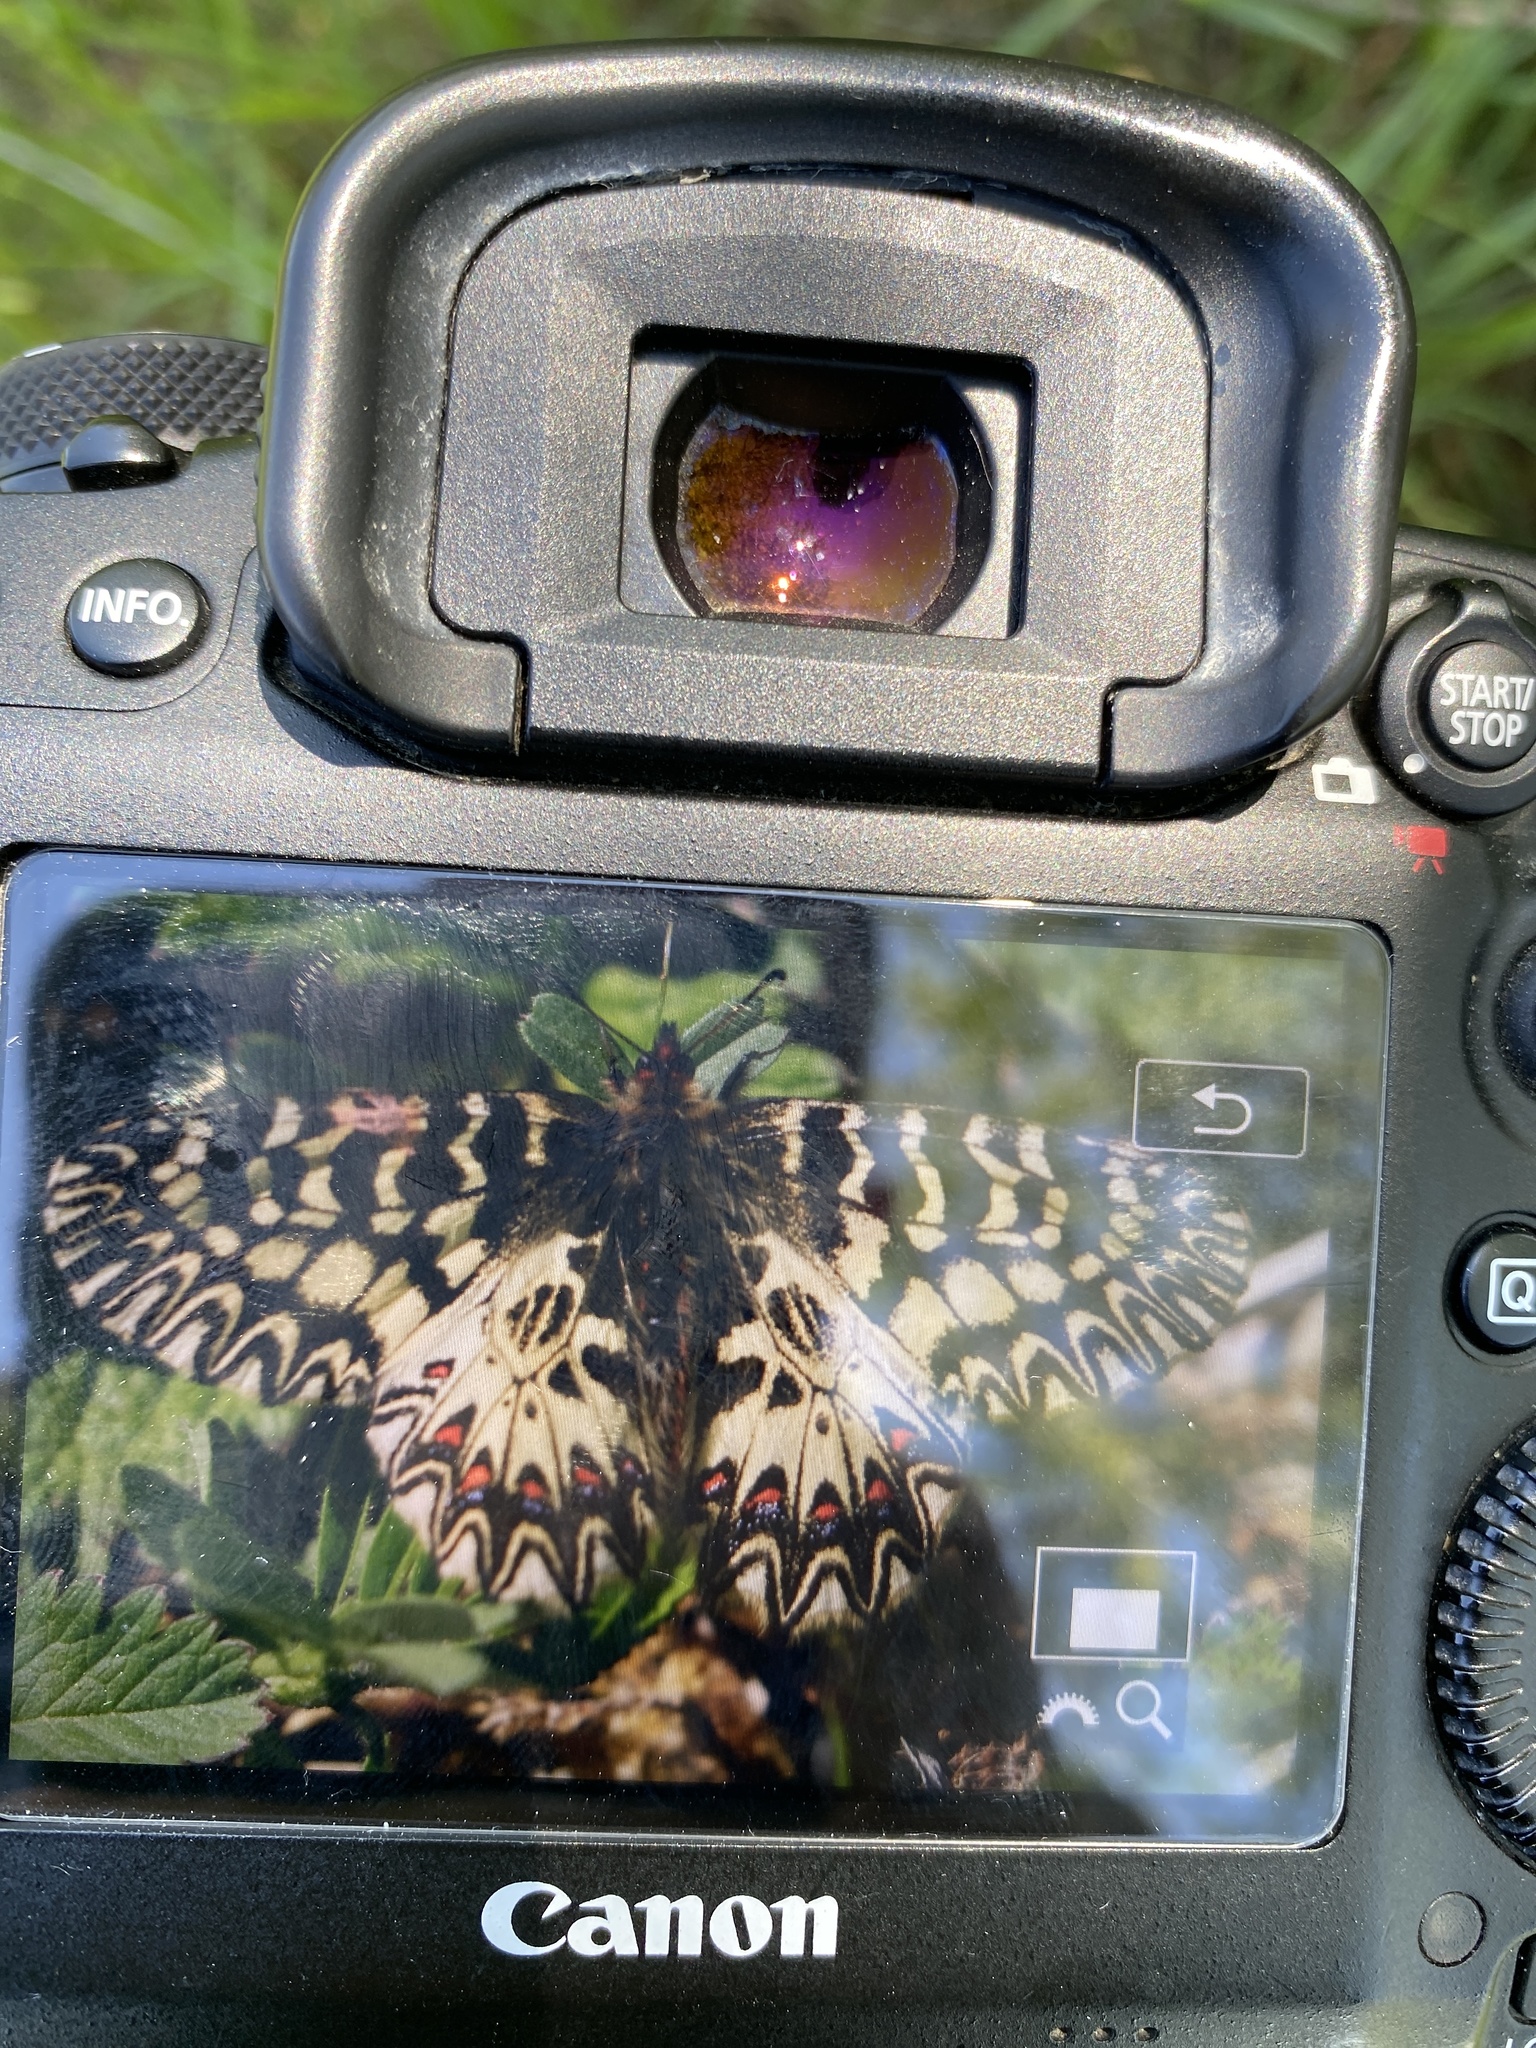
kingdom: Animalia
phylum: Arthropoda
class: Insecta
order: Lepidoptera
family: Papilionidae
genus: Zerynthia
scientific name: Zerynthia cassandra
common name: Italian festoon
